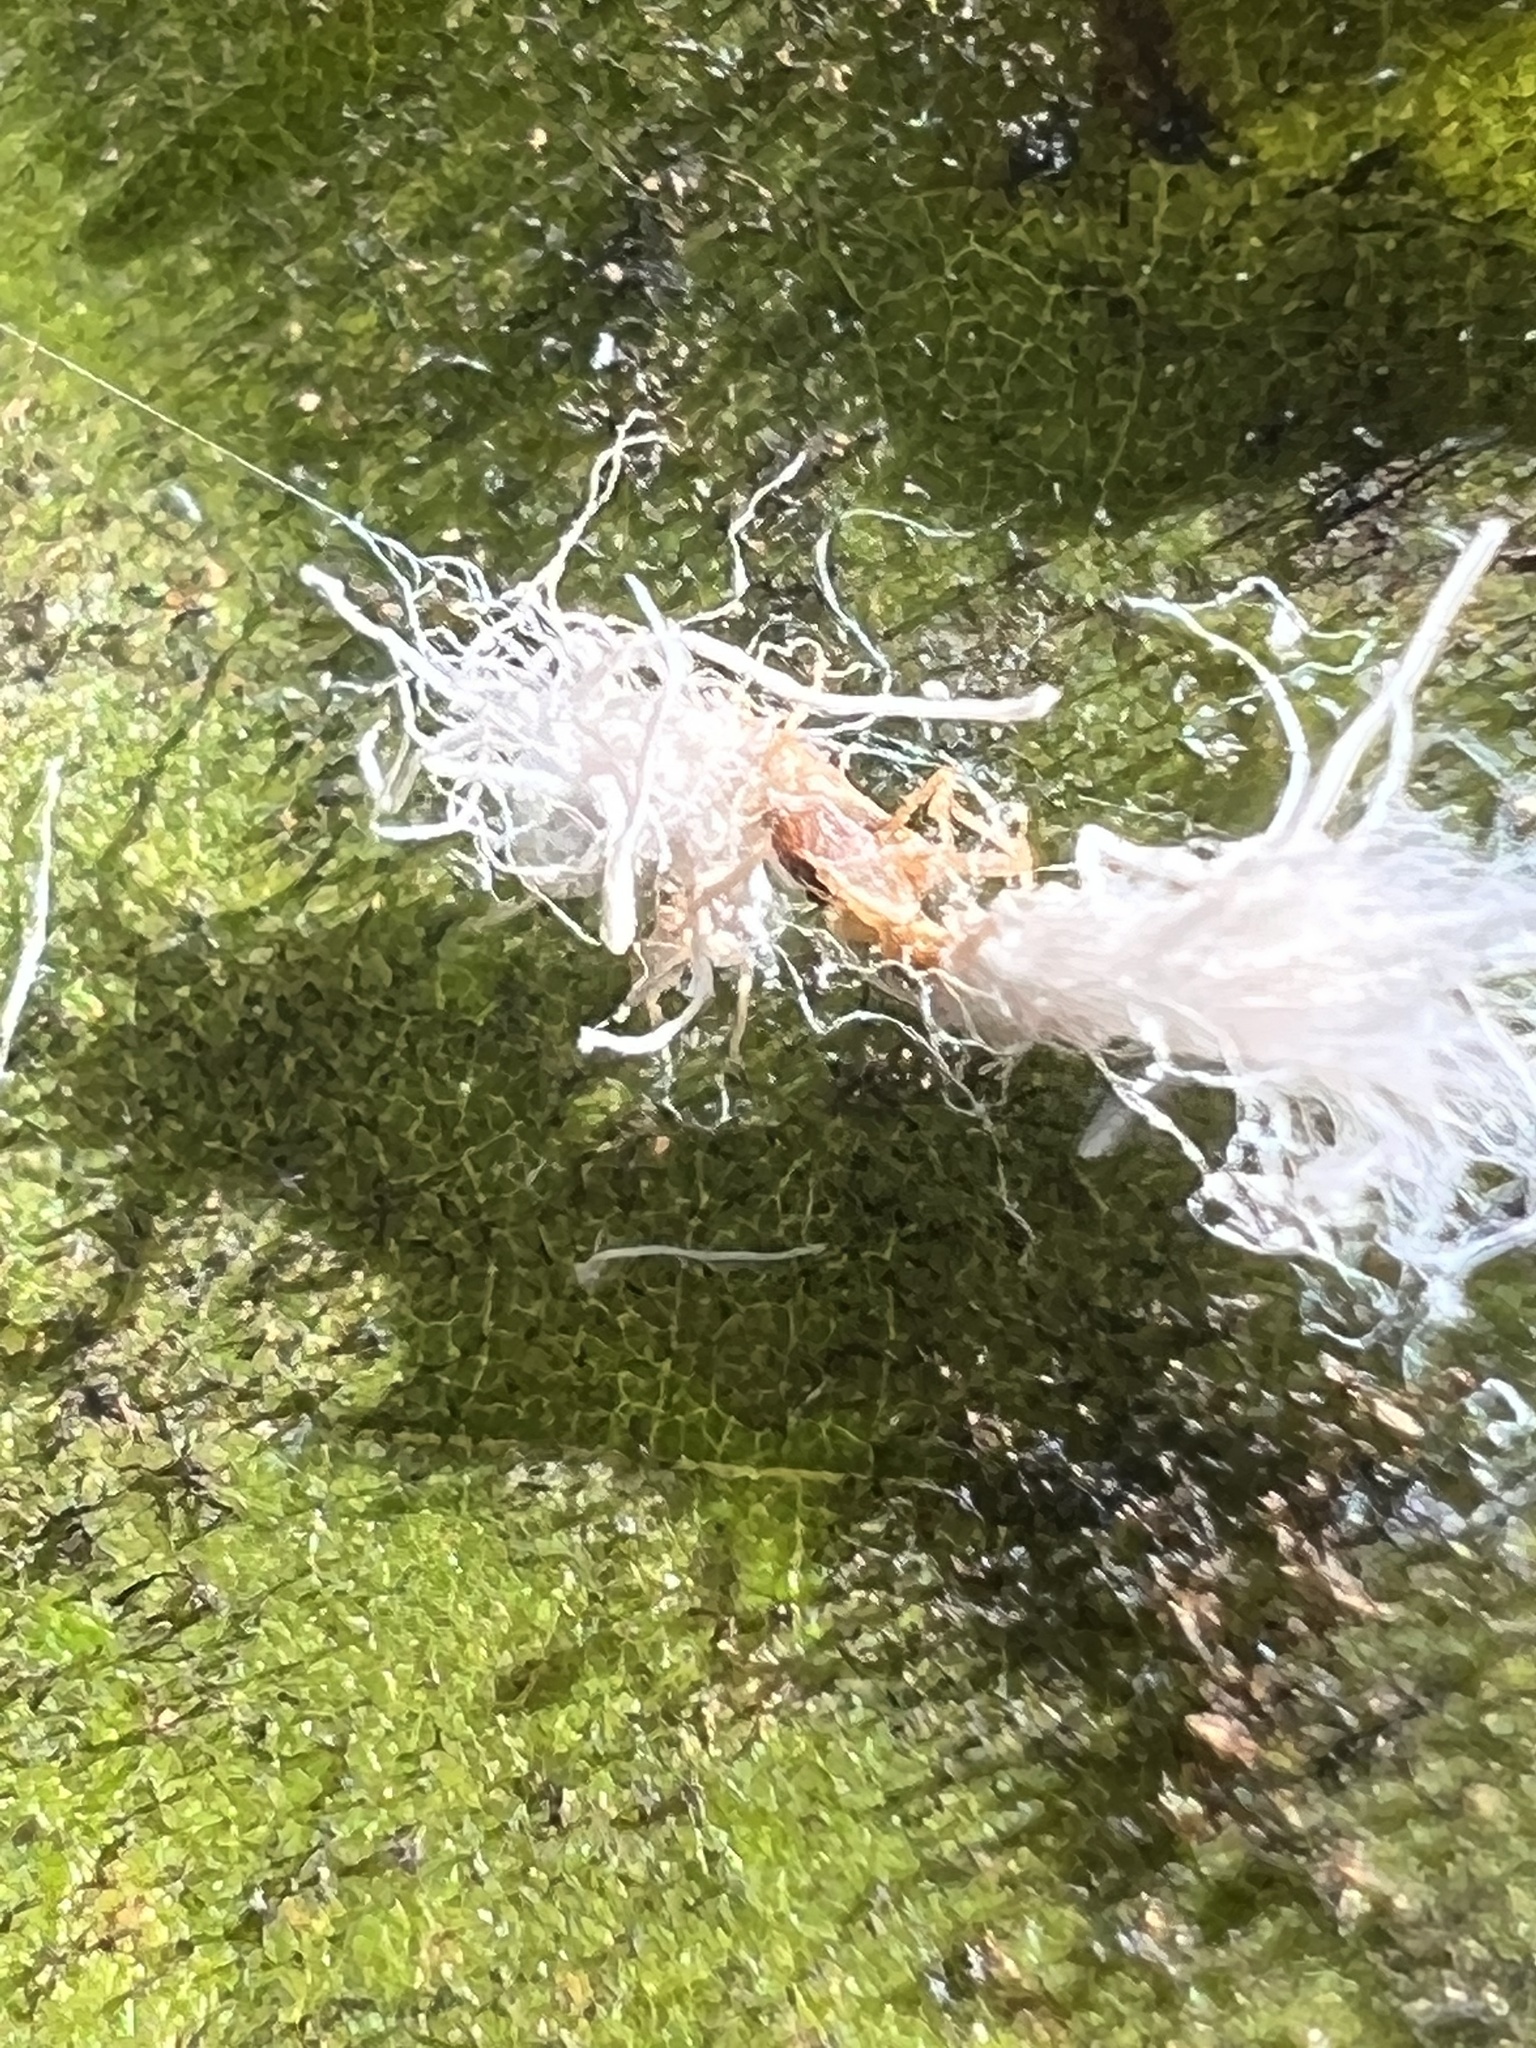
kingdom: Animalia
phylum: Arthropoda
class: Insecta
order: Hemiptera
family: Aphididae
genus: Grylloprociphilus
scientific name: Grylloprociphilus imbricator
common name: Beech blight aphid
